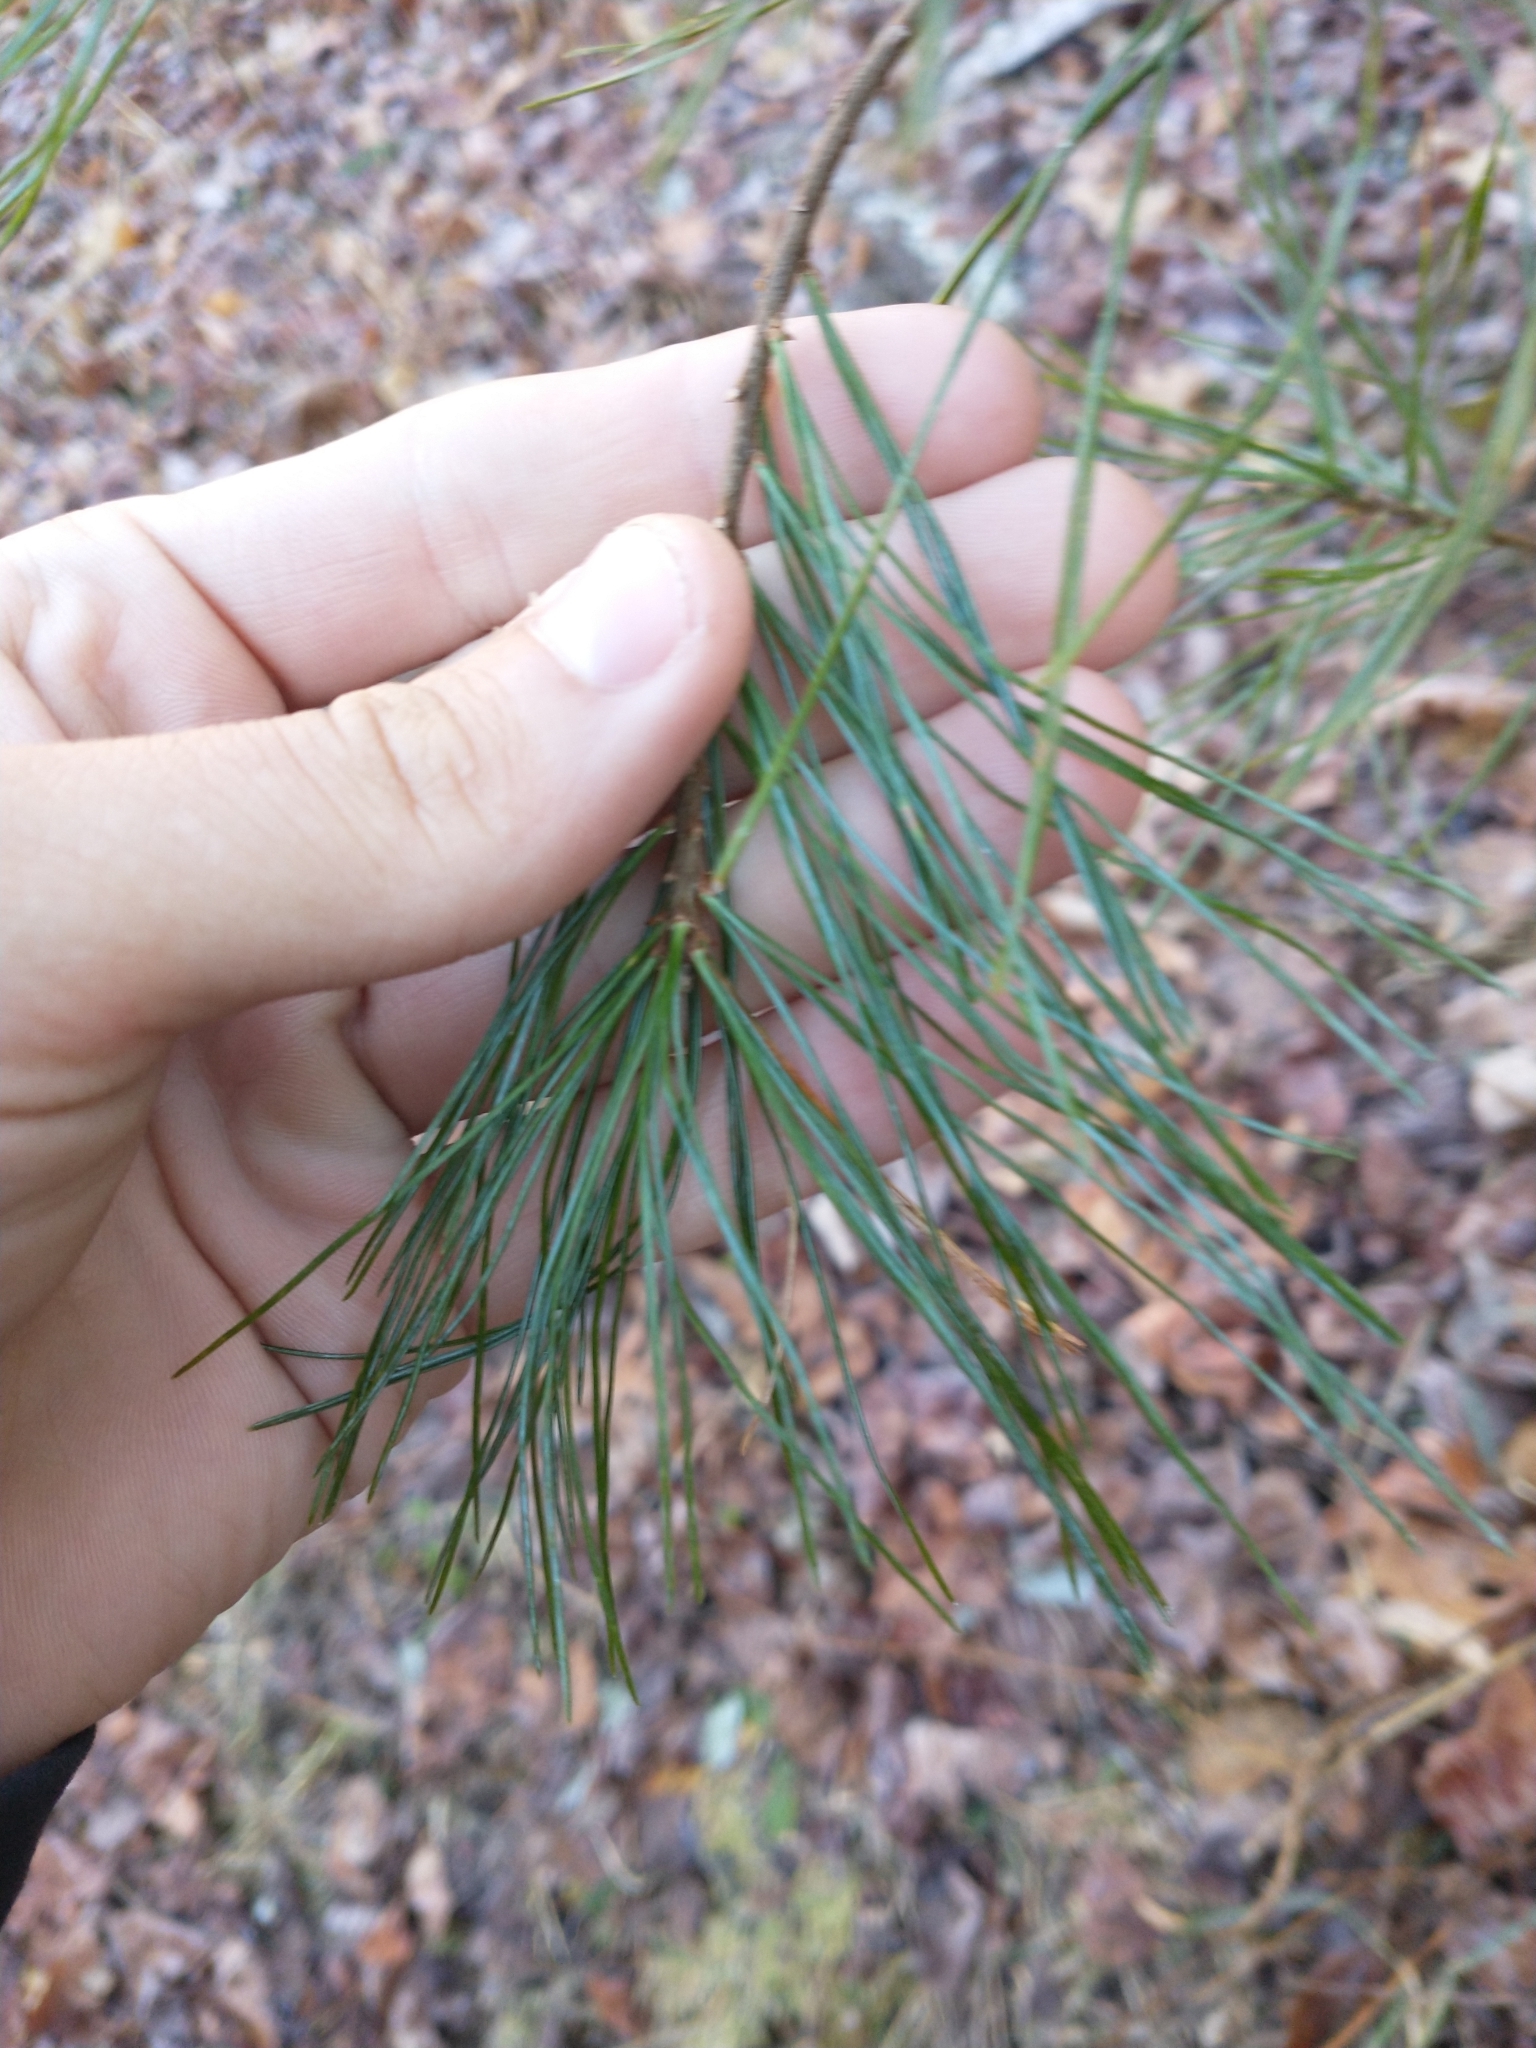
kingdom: Plantae
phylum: Tracheophyta
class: Pinopsida
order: Pinales
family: Pinaceae
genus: Pinus
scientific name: Pinus strobus
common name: Weymouth pine
